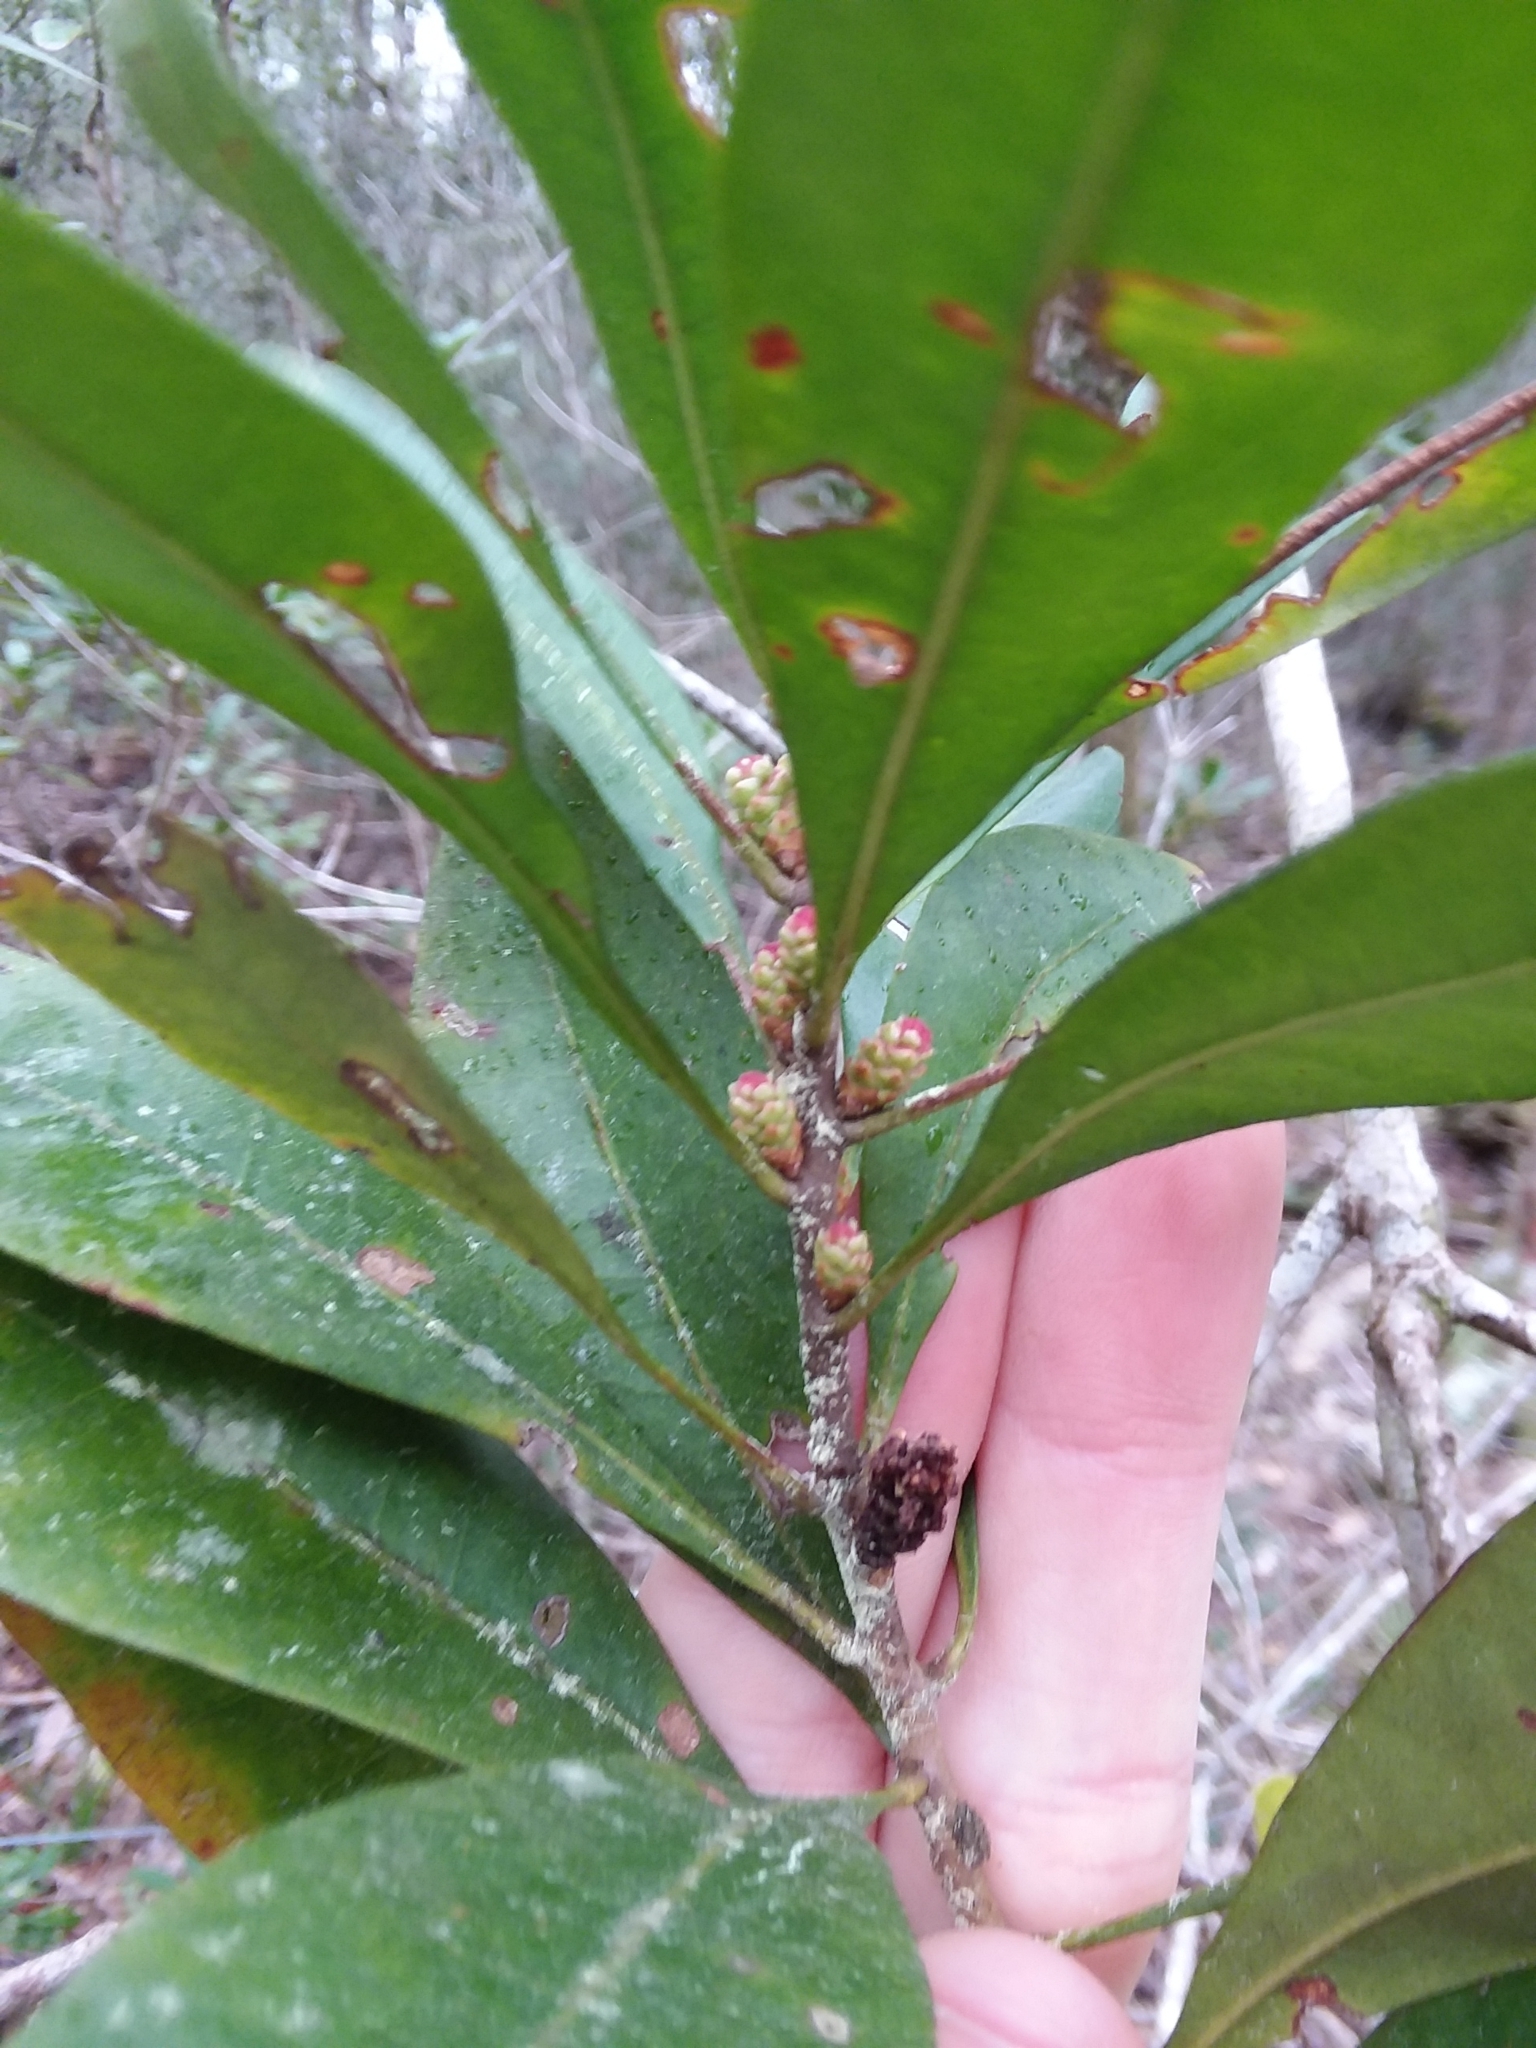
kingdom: Plantae
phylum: Tracheophyta
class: Magnoliopsida
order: Fagales
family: Myricaceae
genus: Morella
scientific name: Morella inodora
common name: Candle-berry
